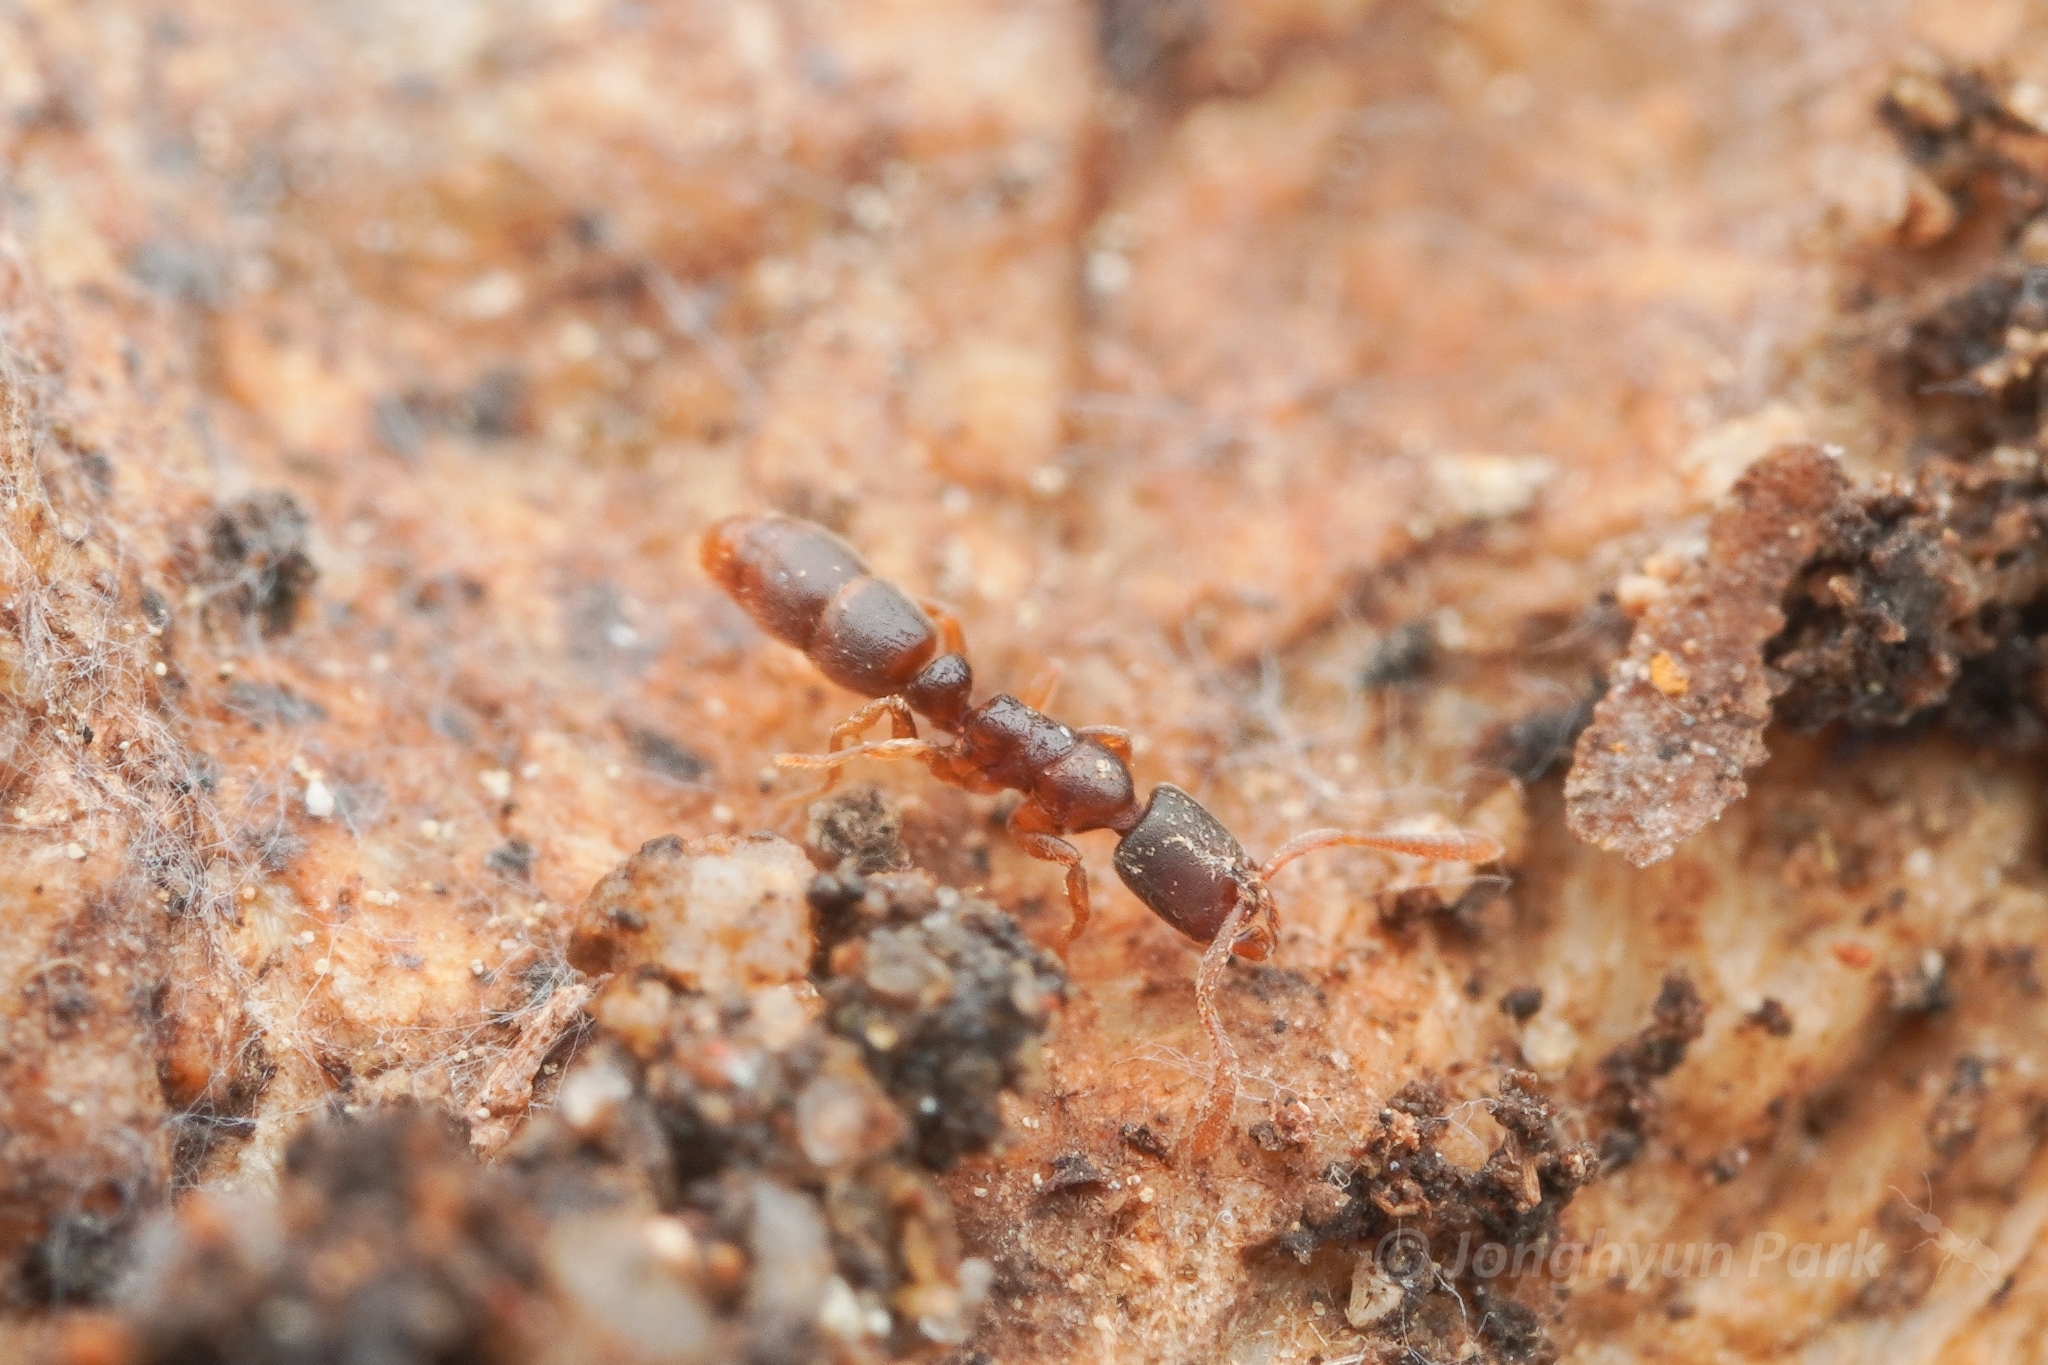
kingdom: Animalia
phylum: Arthropoda
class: Insecta
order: Hymenoptera
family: Formicidae
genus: Ponera
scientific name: Ponera japonica
